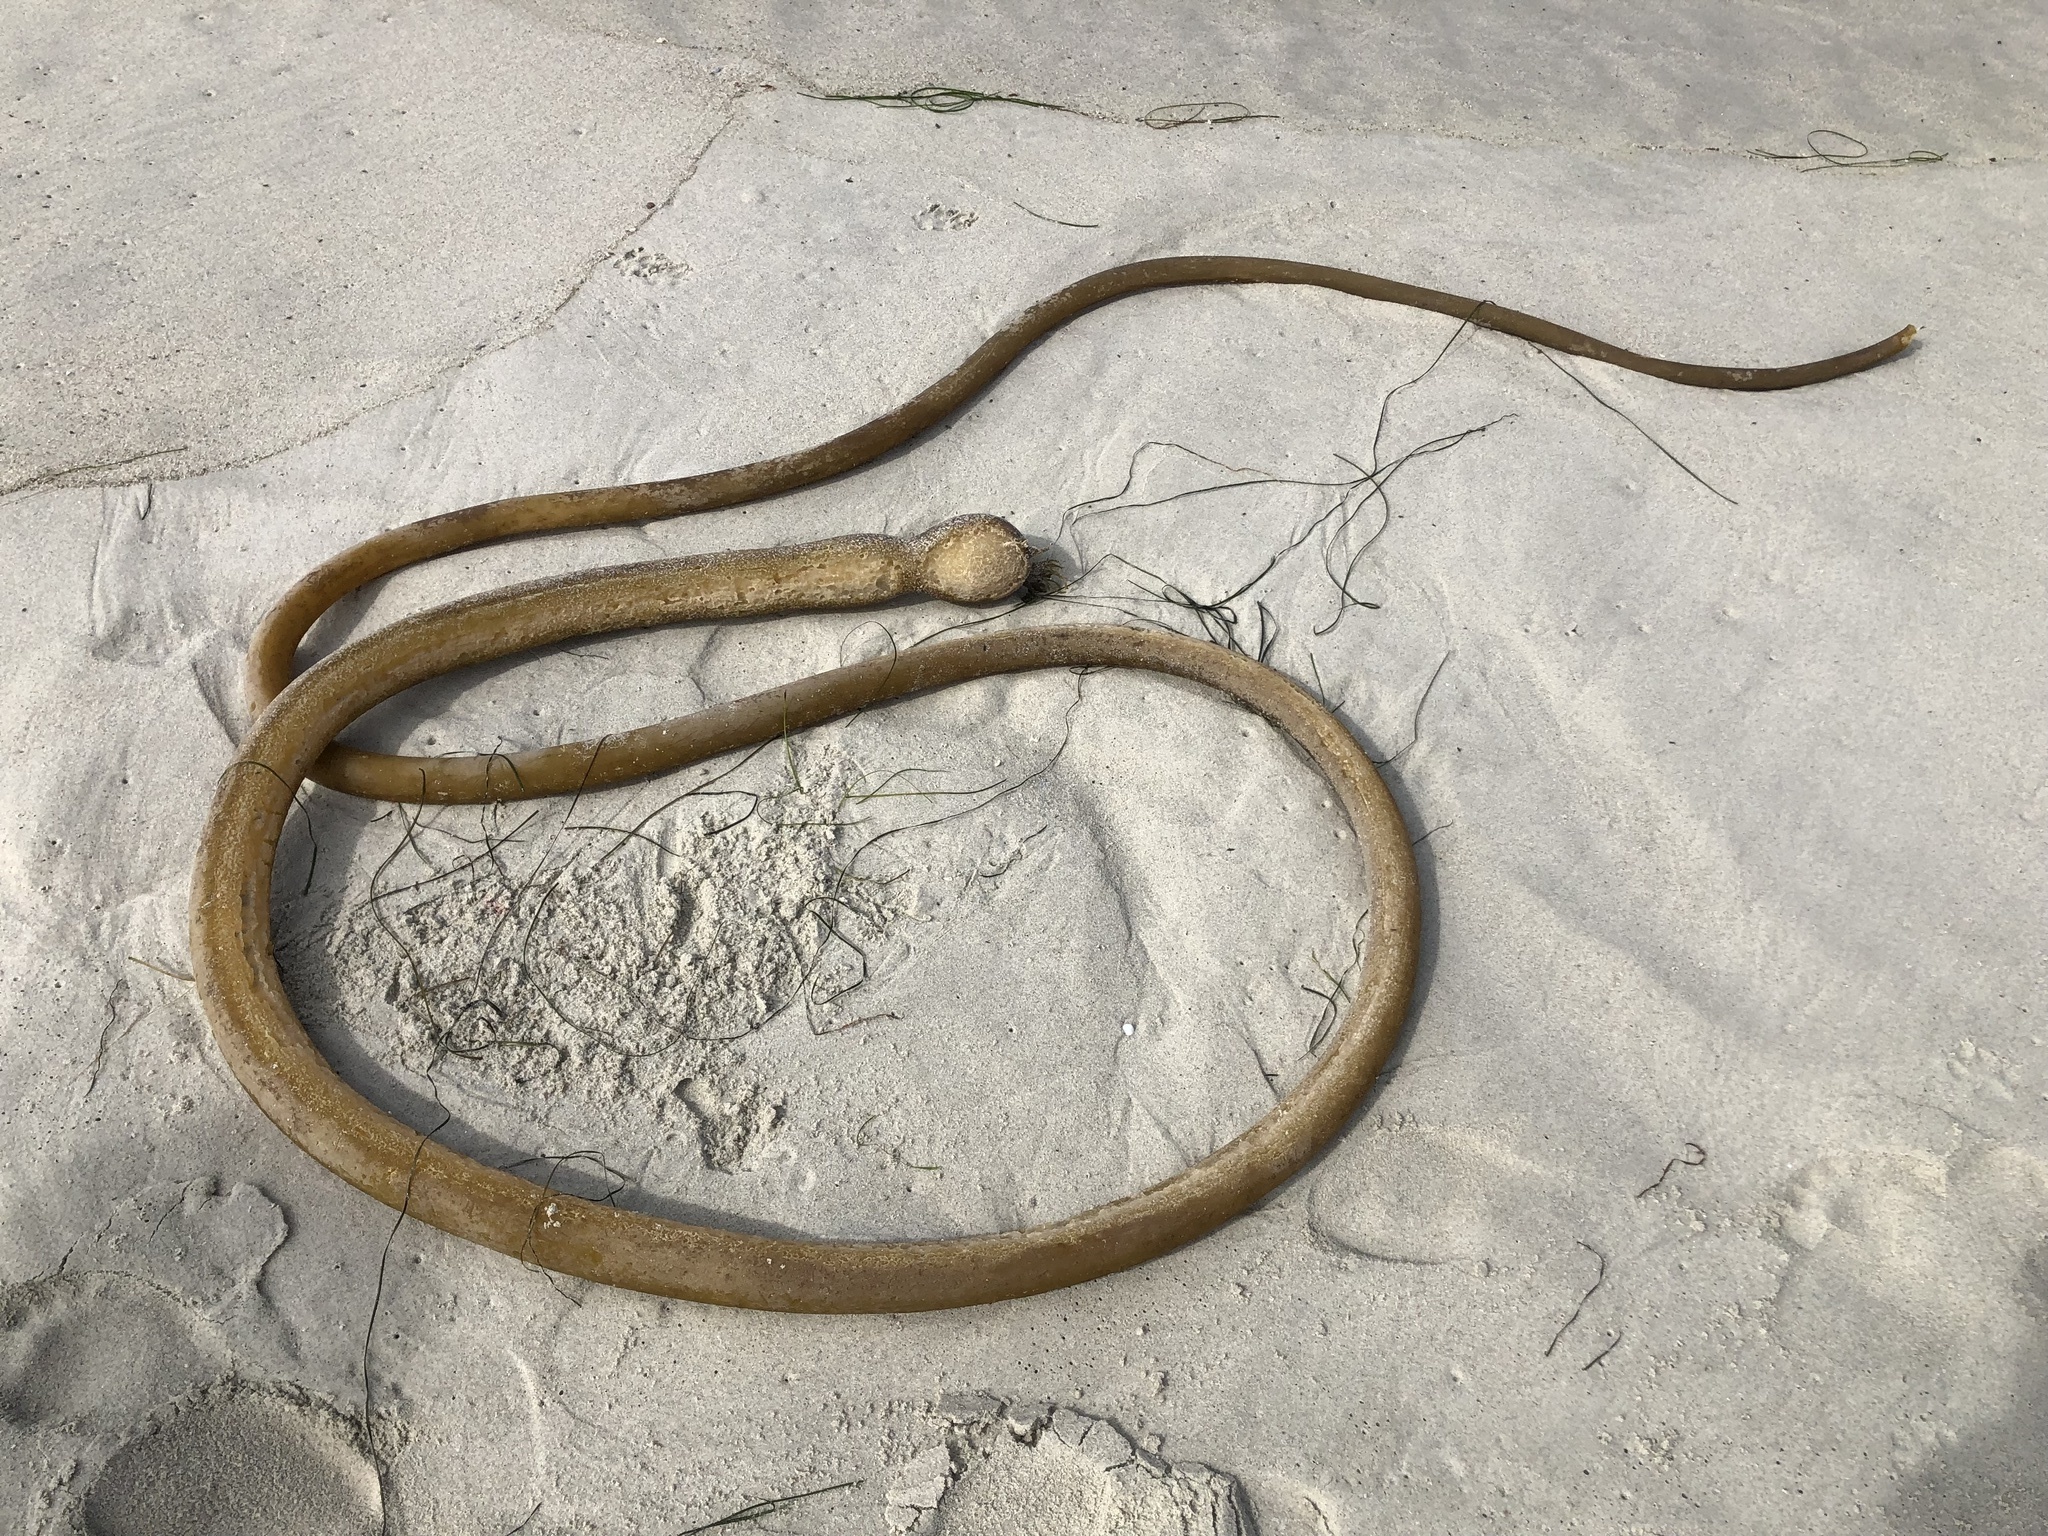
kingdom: Chromista
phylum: Ochrophyta
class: Phaeophyceae
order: Laminariales
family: Laminariaceae
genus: Nereocystis
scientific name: Nereocystis luetkeana
